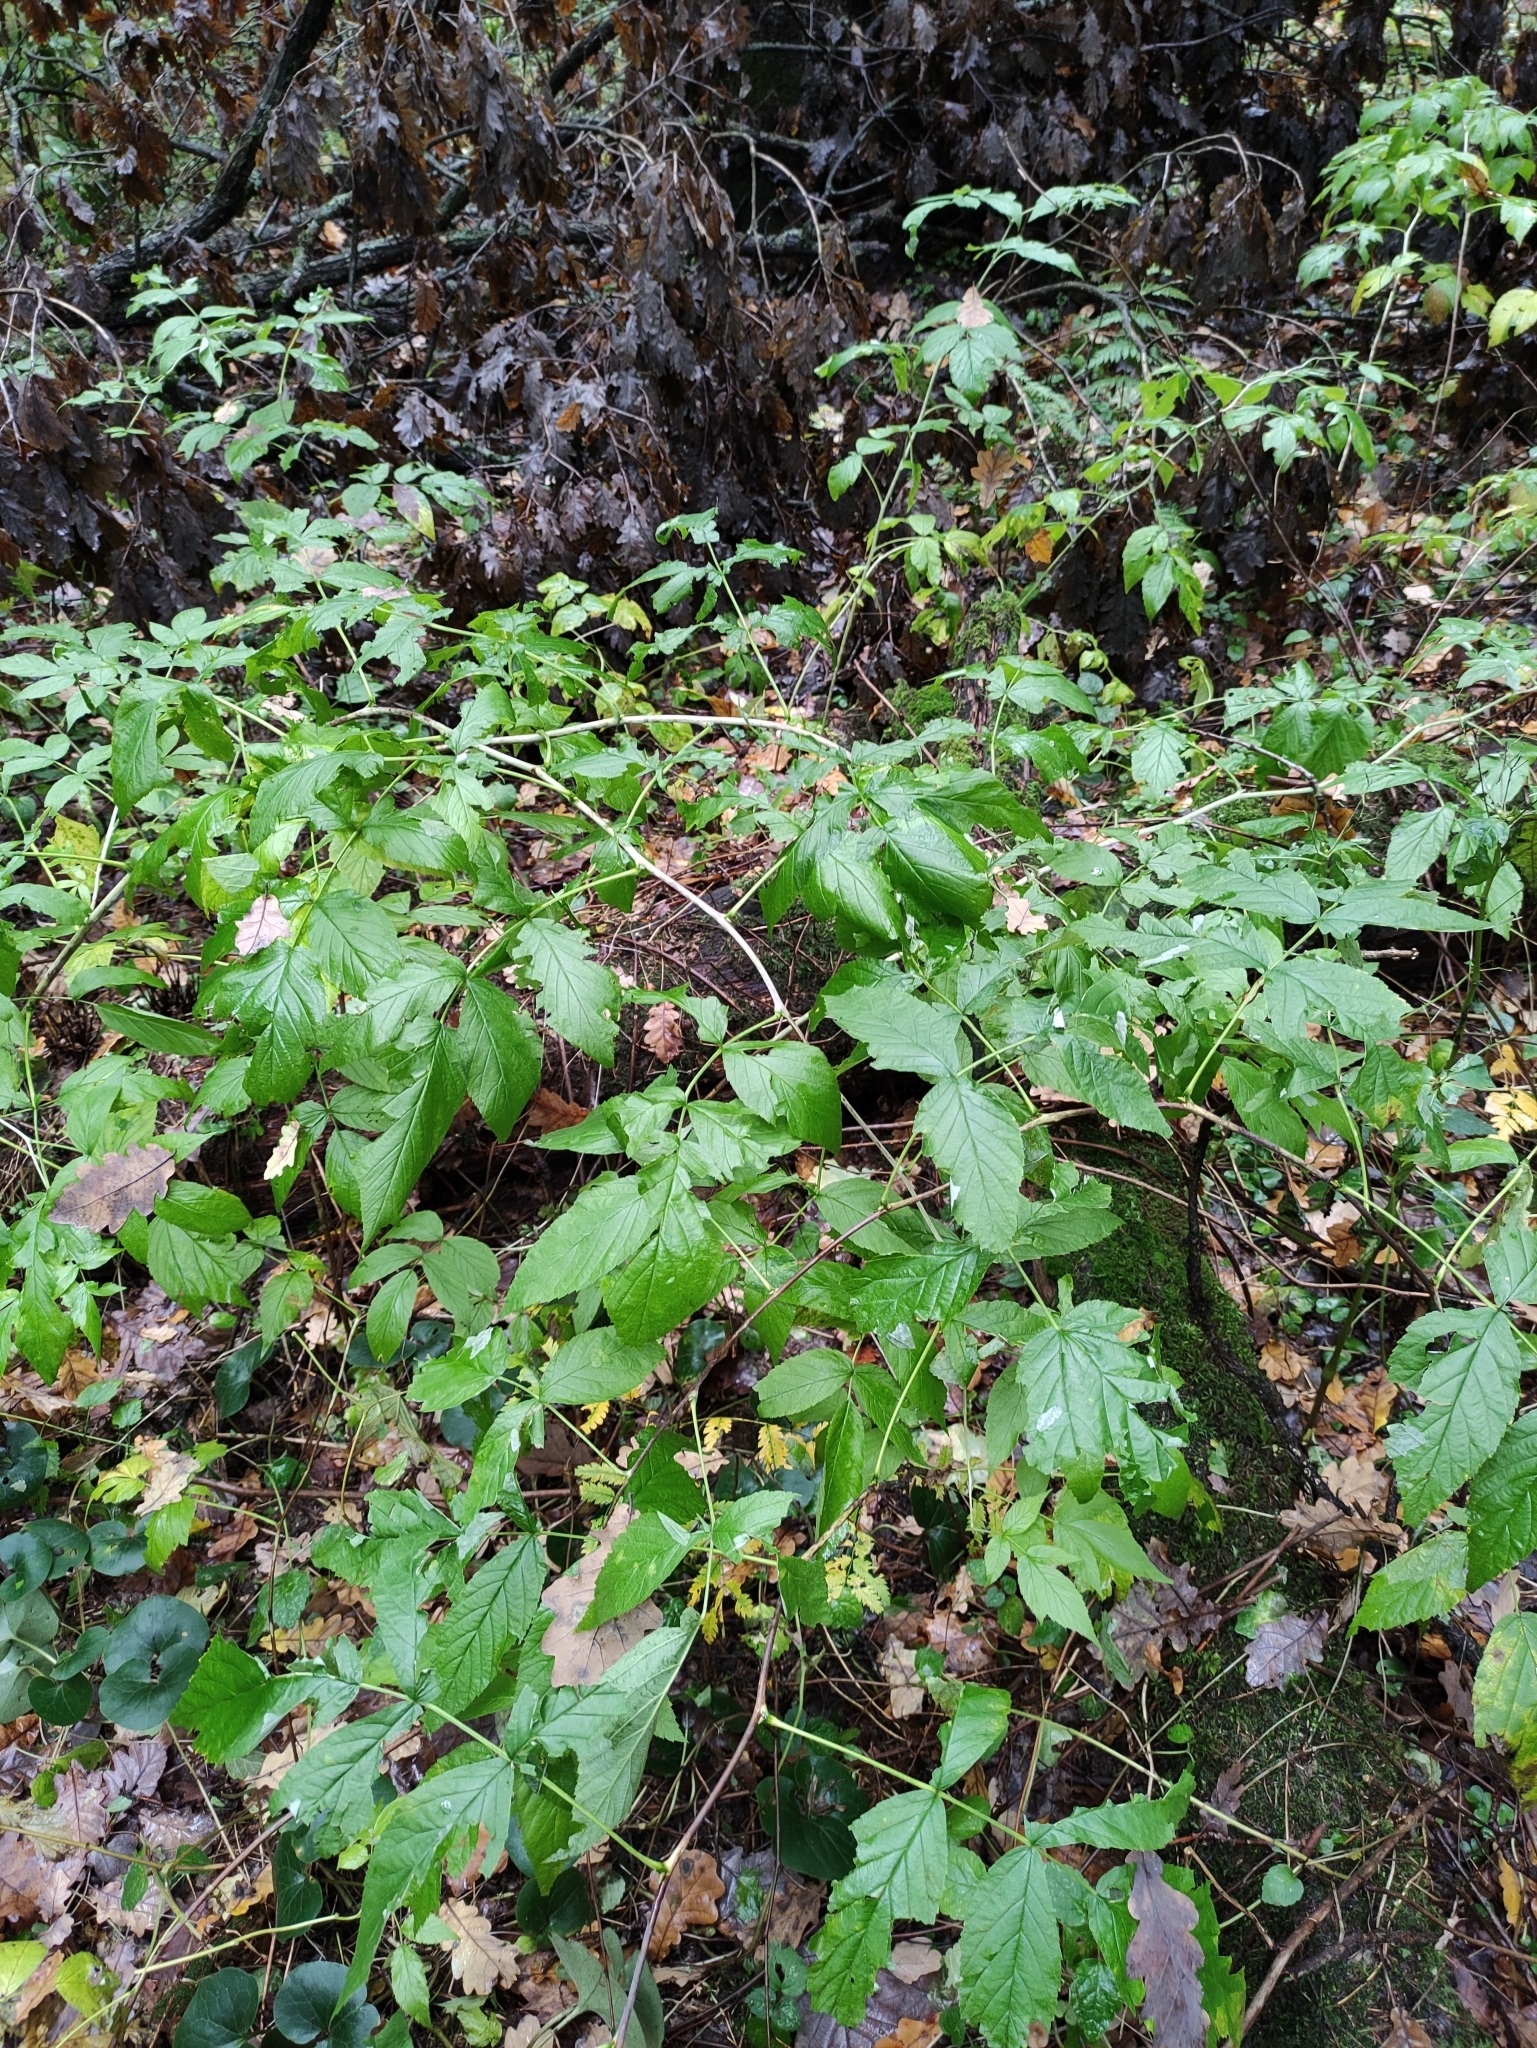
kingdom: Plantae
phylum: Tracheophyta
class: Magnoliopsida
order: Rosales
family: Rosaceae
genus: Rubus
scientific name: Rubus idaeus
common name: Raspberry
